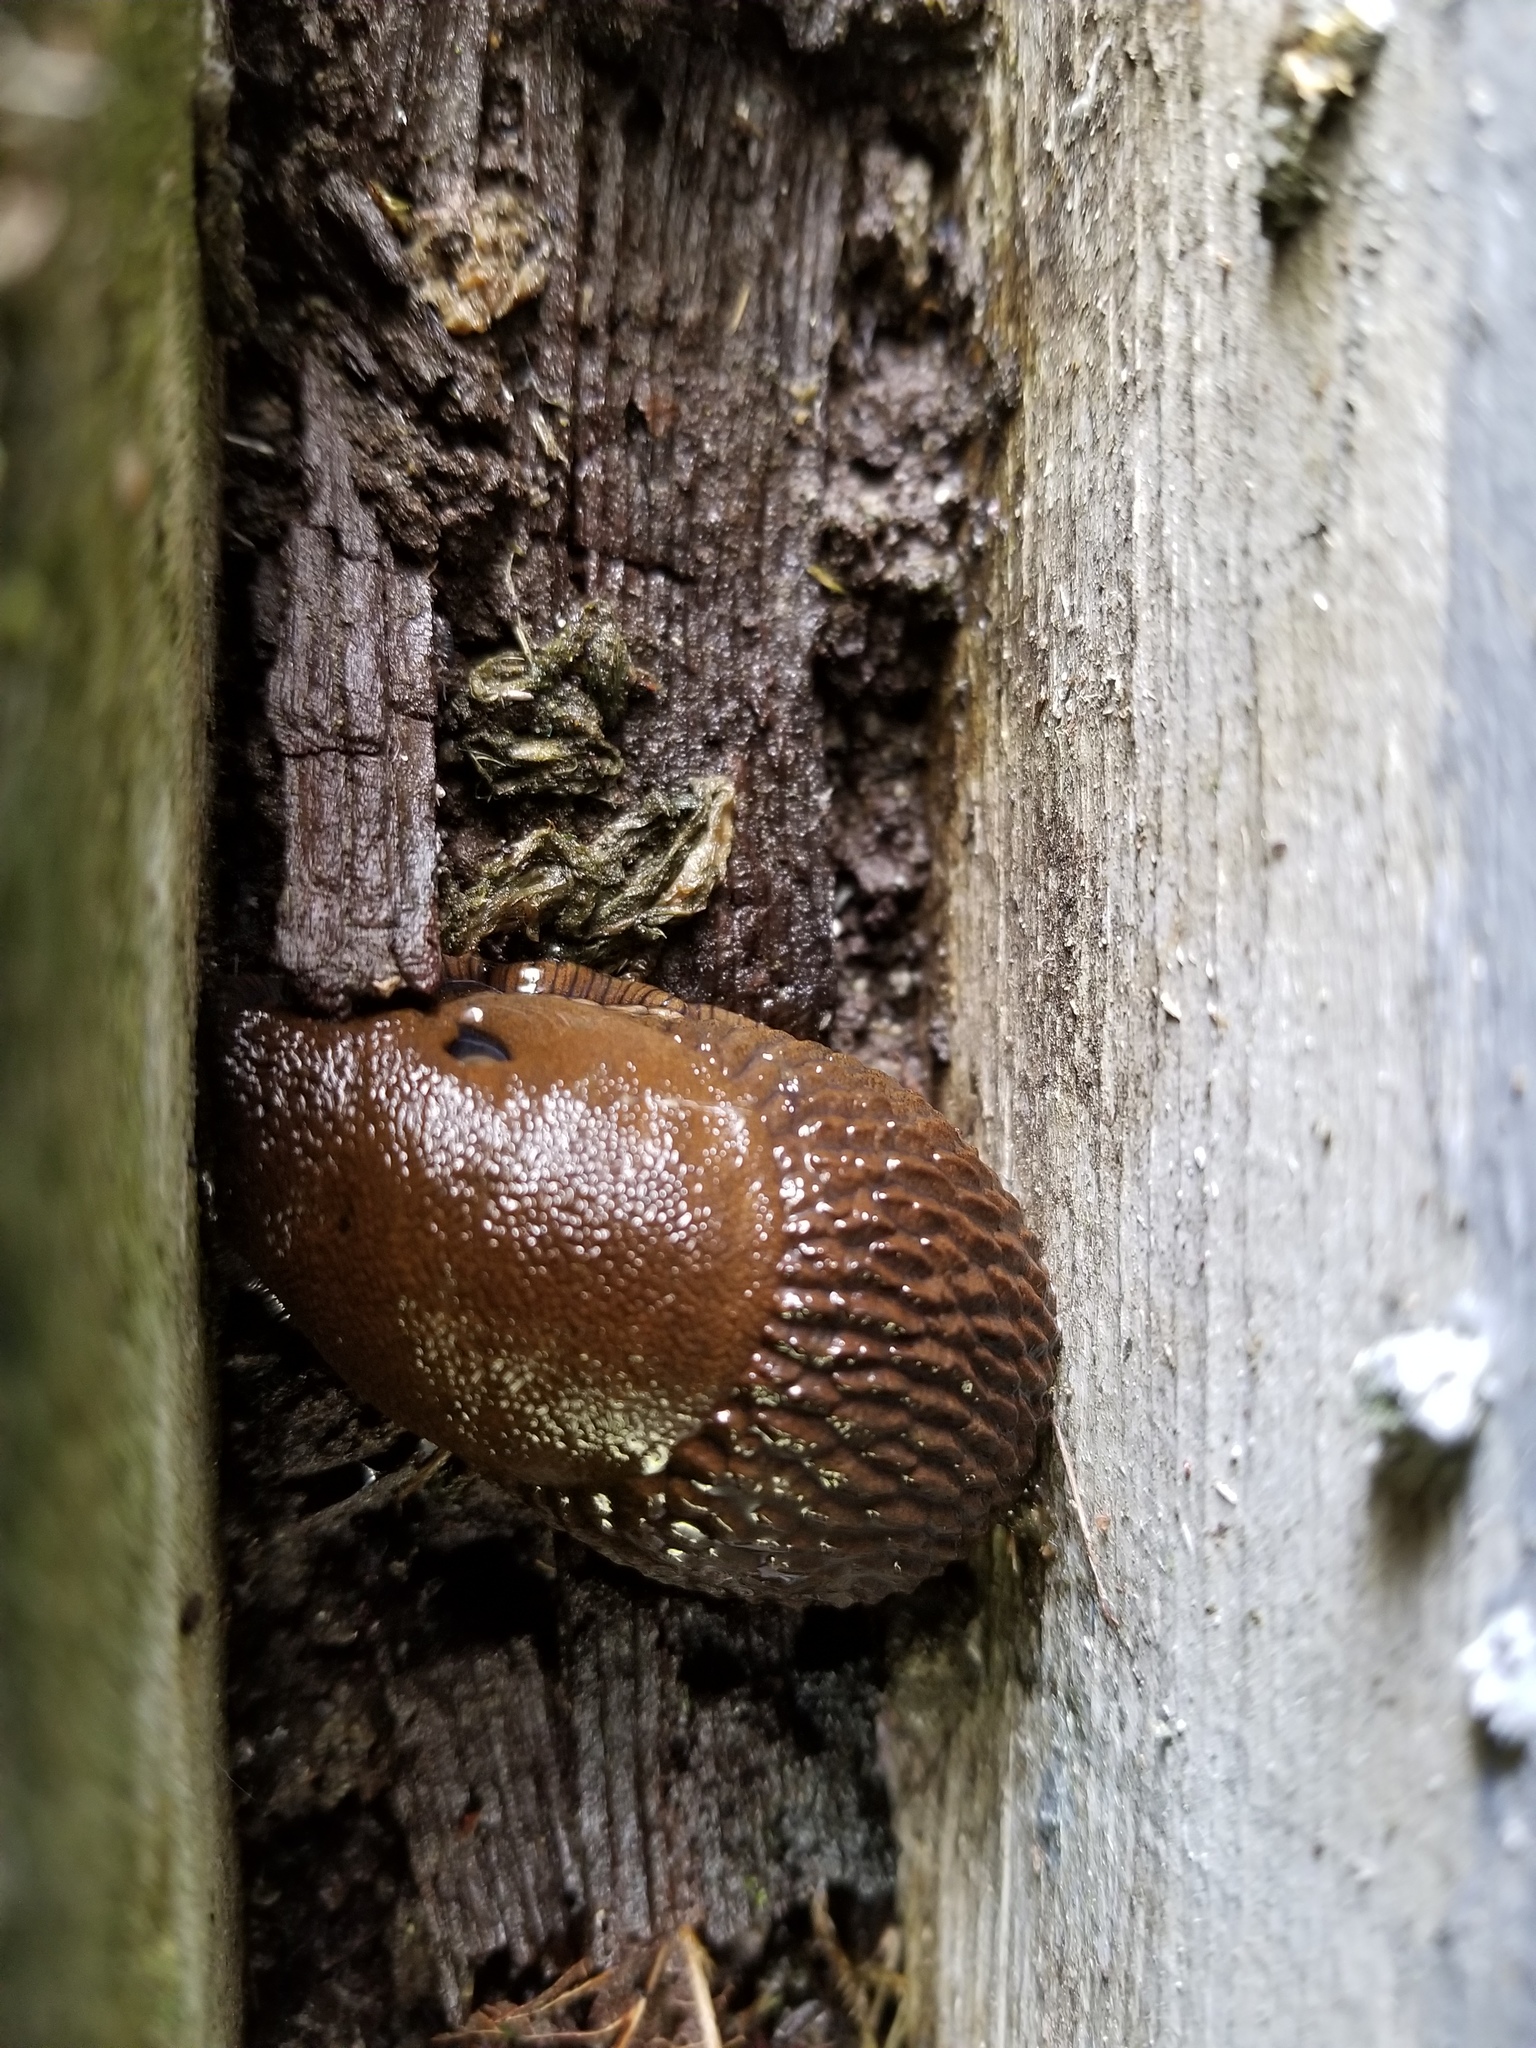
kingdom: Animalia
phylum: Mollusca
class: Gastropoda
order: Stylommatophora
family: Arionidae
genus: Arion
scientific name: Arion
